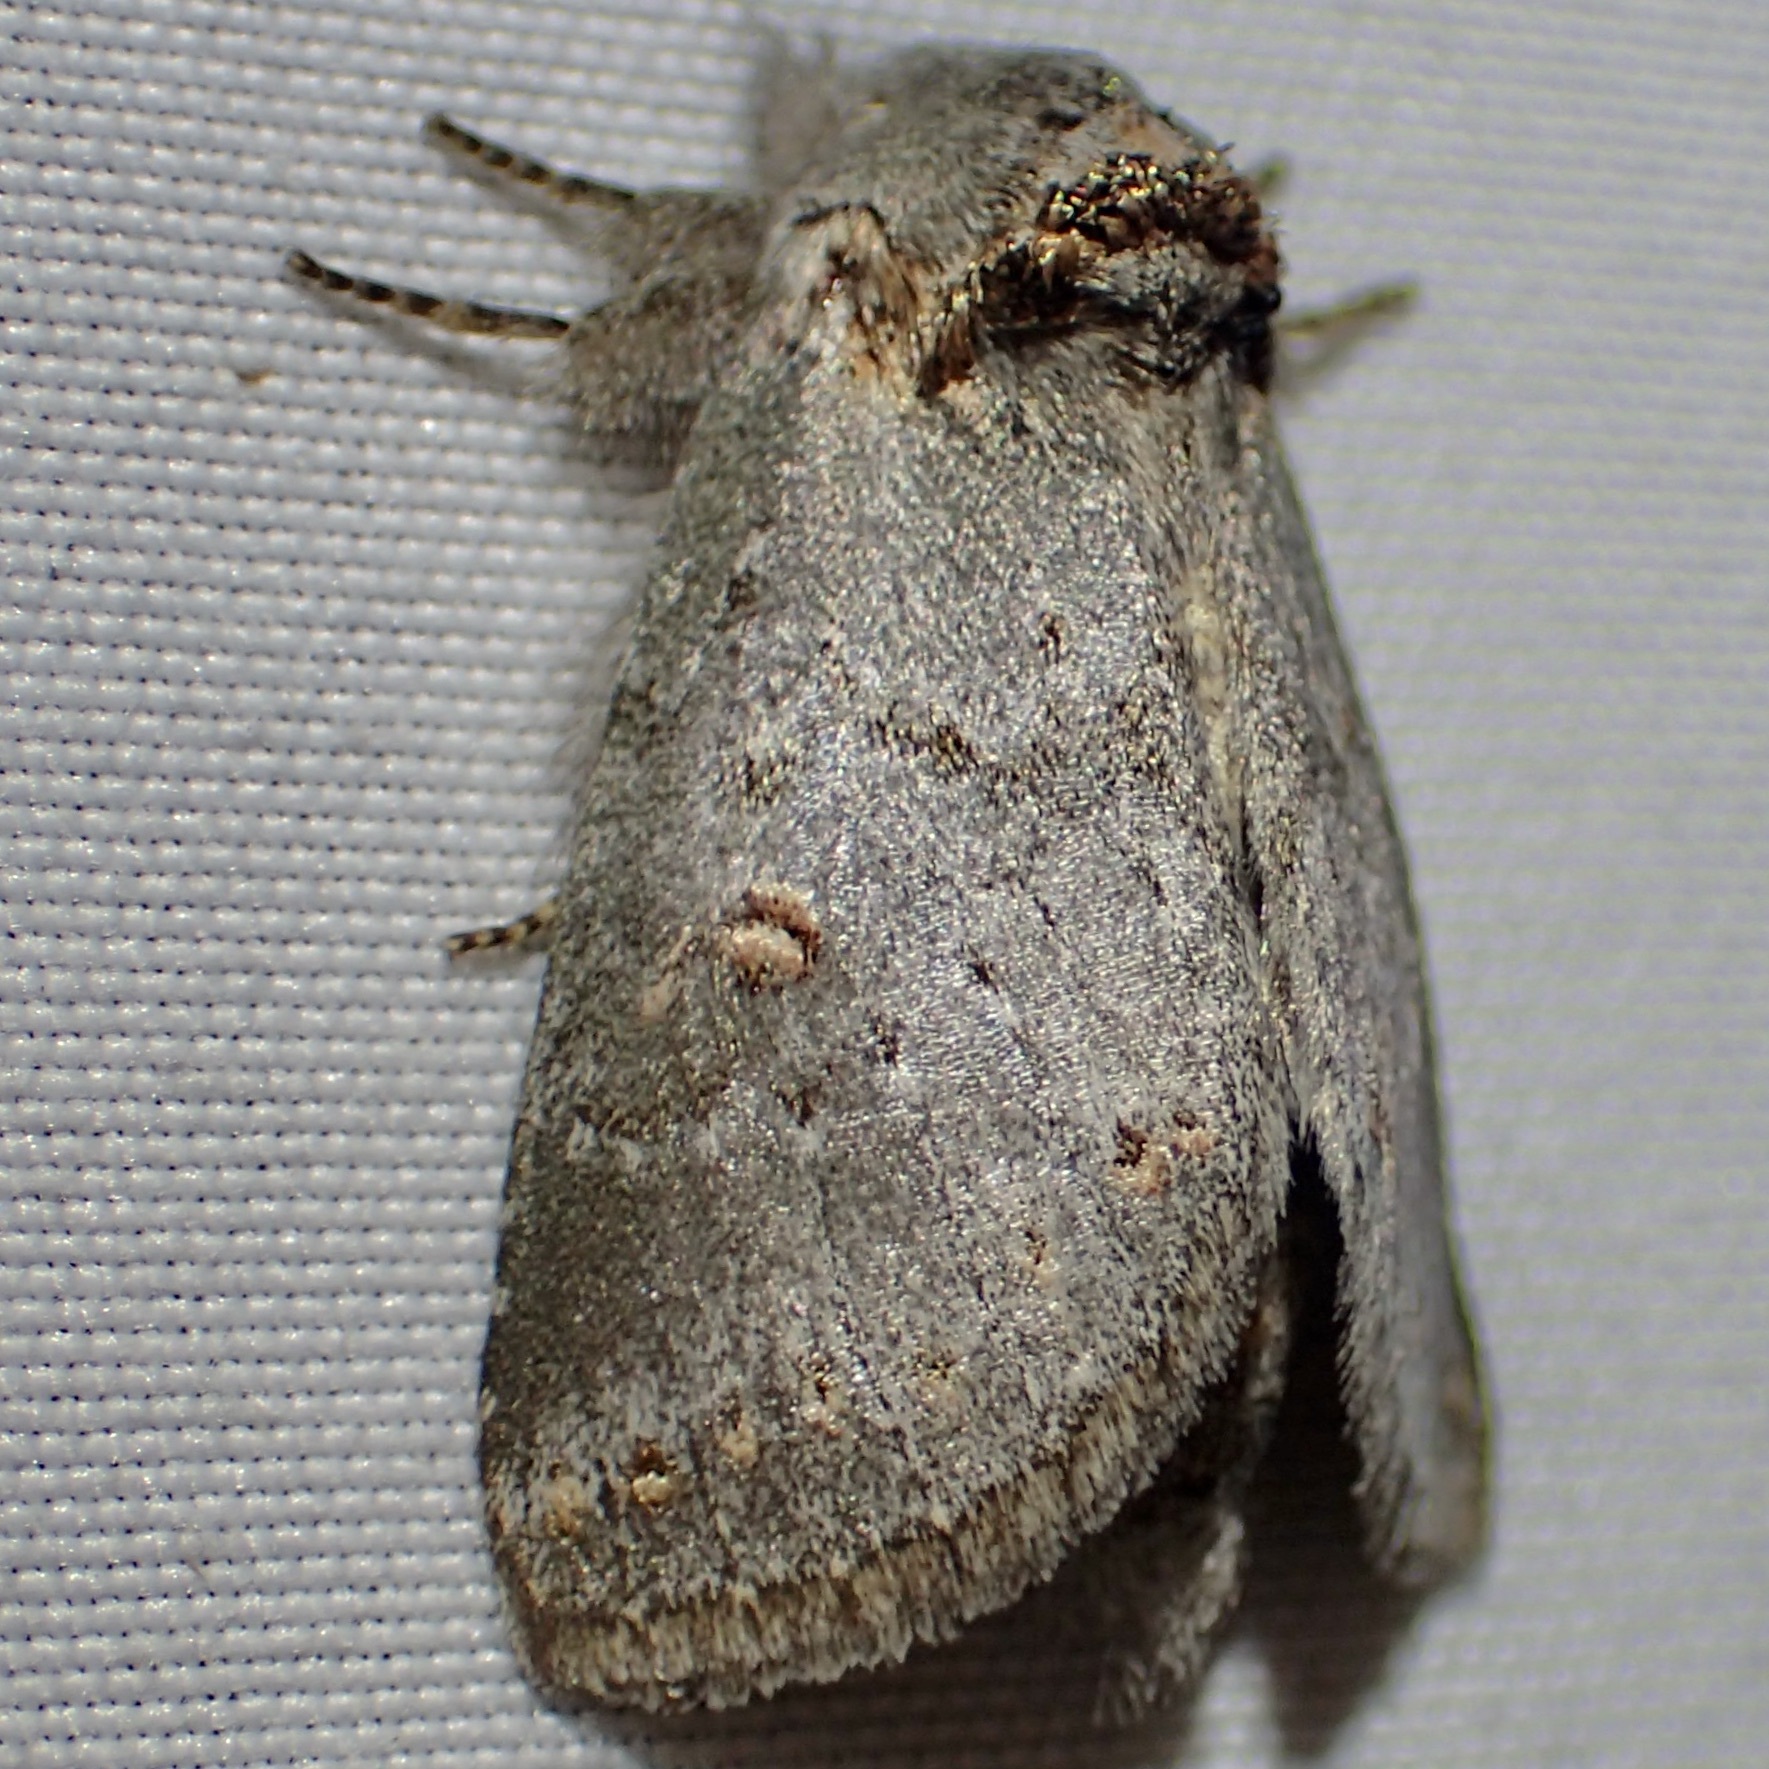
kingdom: Animalia
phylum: Arthropoda
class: Insecta
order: Lepidoptera
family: Notodontidae
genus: Theroa
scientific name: Theroa zethus
